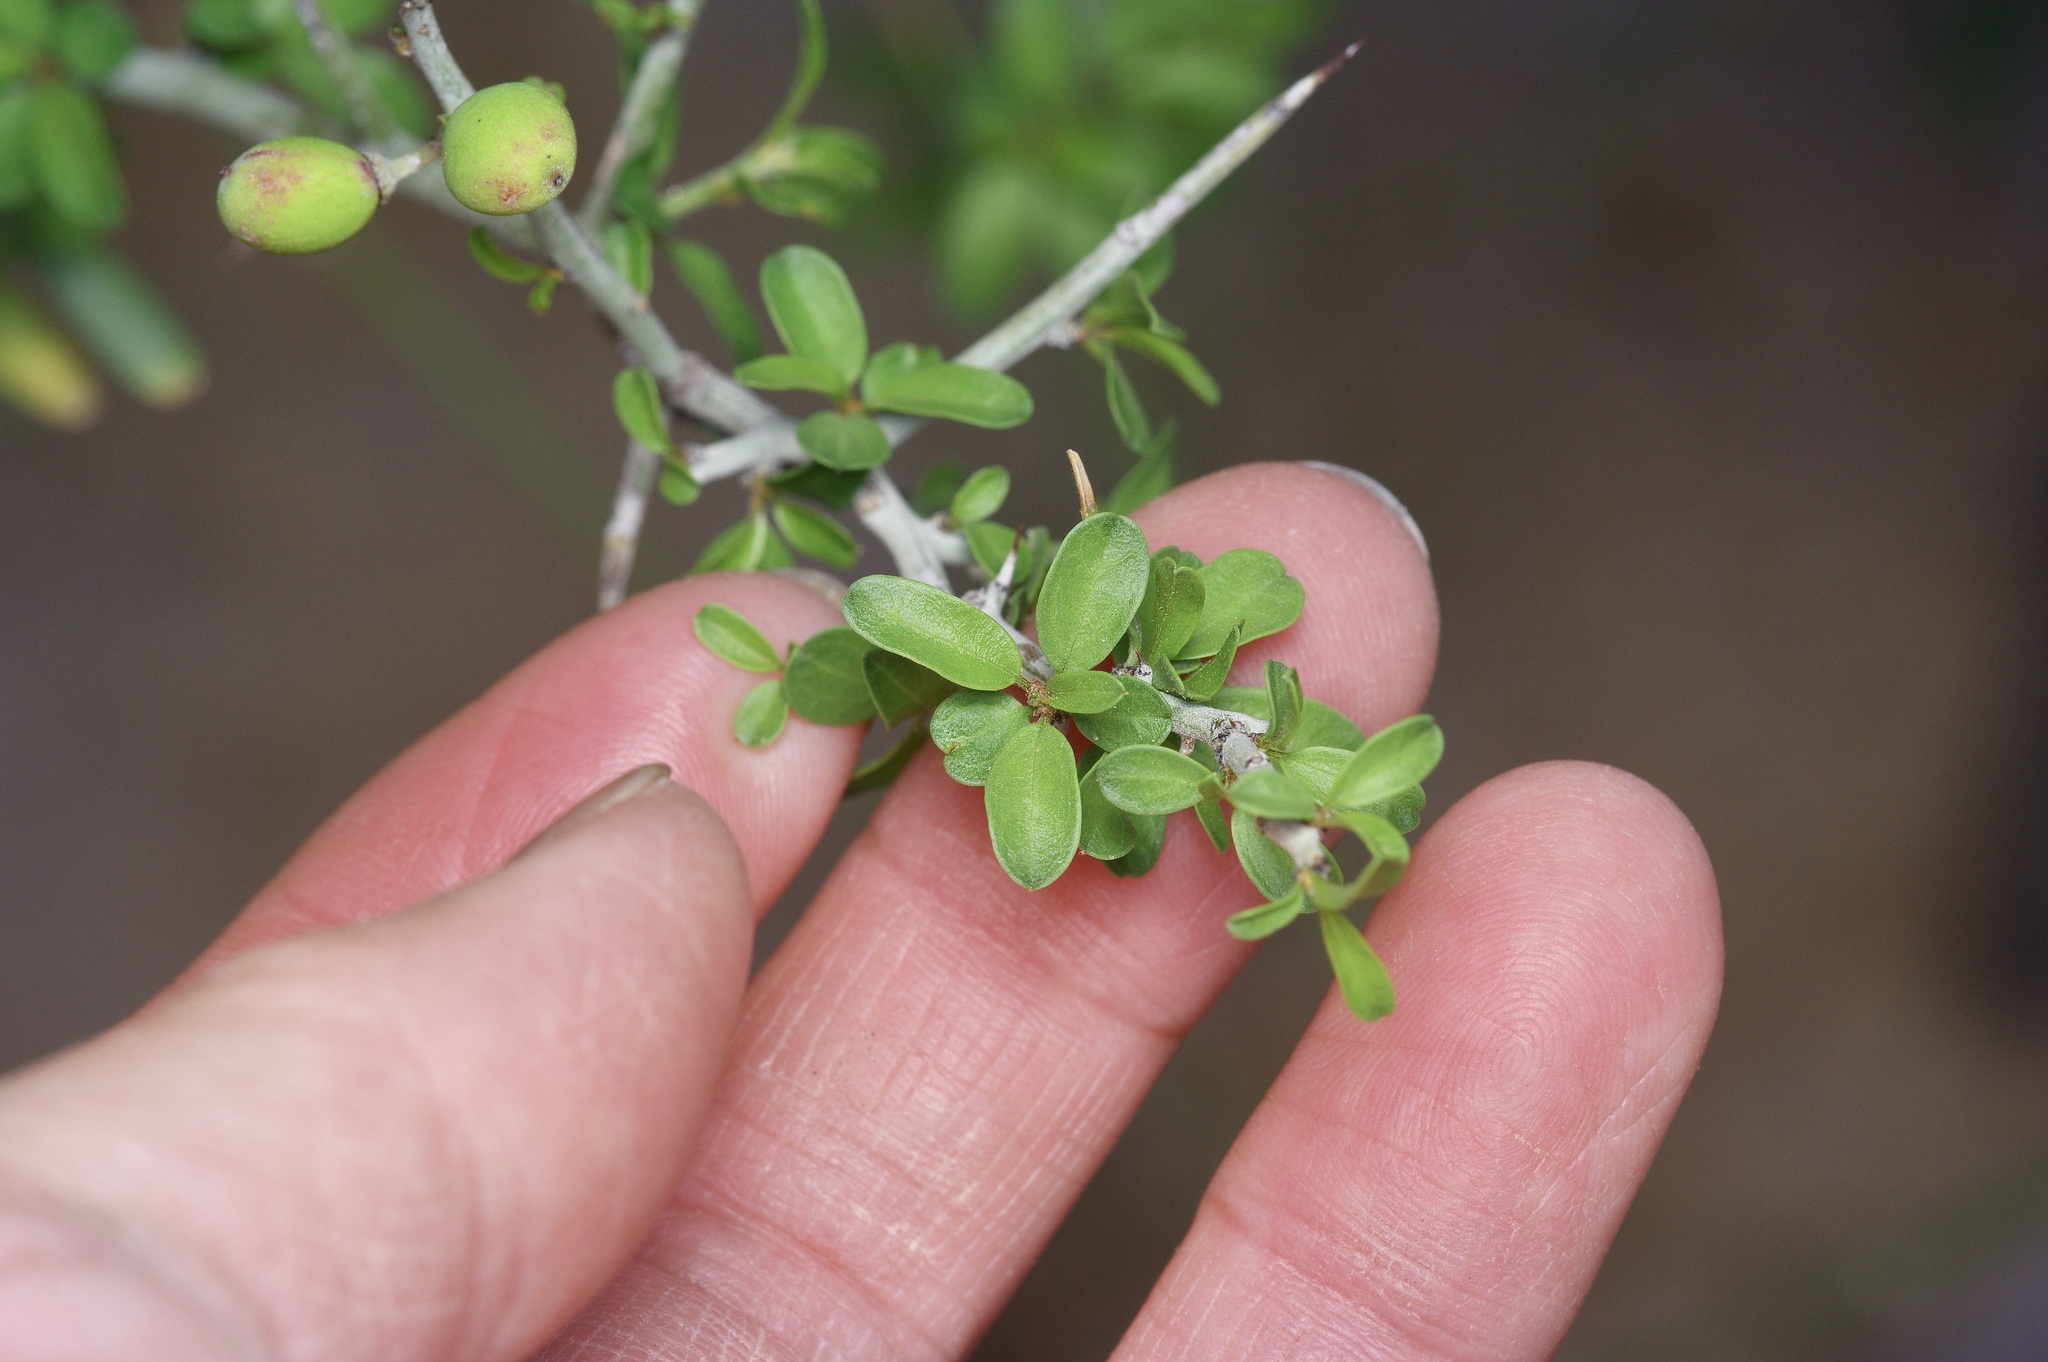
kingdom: Plantae
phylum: Tracheophyta
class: Magnoliopsida
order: Rosales
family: Rhamnaceae
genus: Sarcomphalus
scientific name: Sarcomphalus obtusifolius
